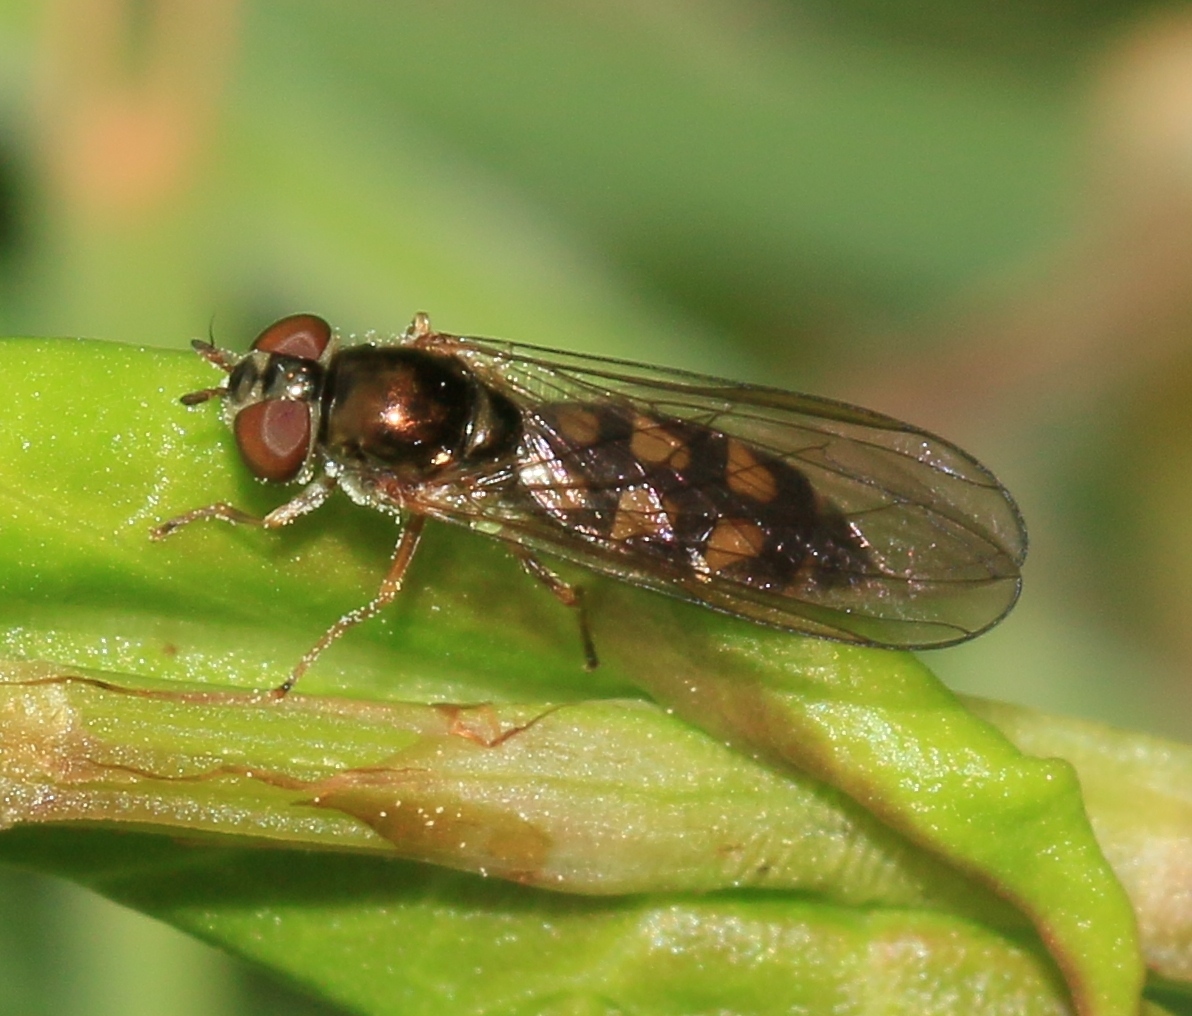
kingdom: Animalia
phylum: Arthropoda
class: Insecta
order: Diptera
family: Syrphidae
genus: Melanostoma
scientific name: Melanostoma scalare
